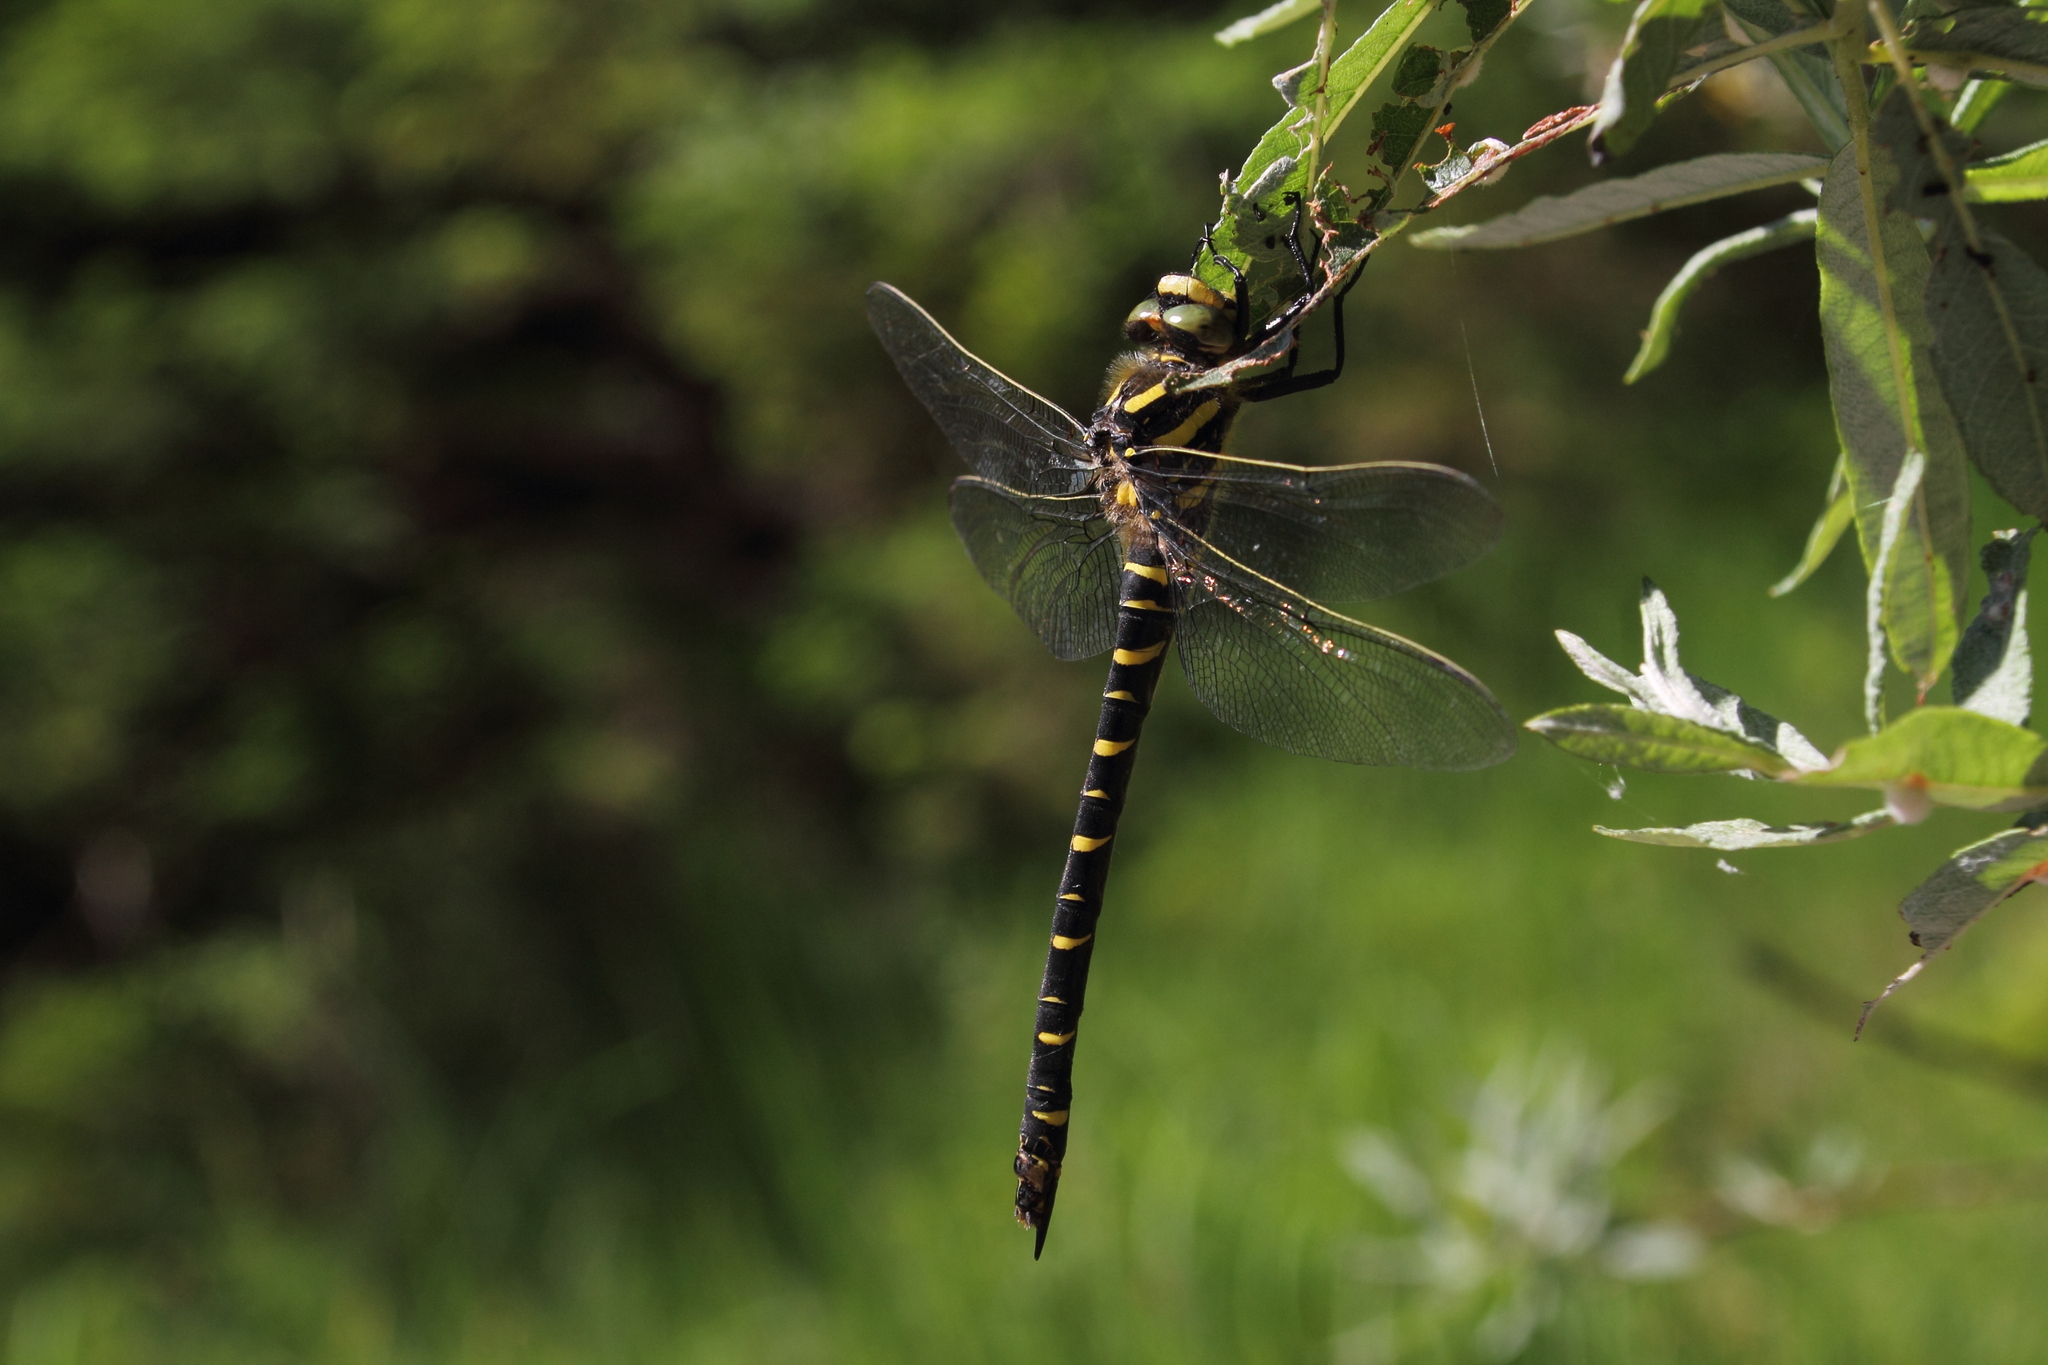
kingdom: Animalia
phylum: Arthropoda
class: Insecta
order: Odonata
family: Cordulegastridae
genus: Cordulegaster
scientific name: Cordulegaster boltonii
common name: Golden-ringed dragonfly
